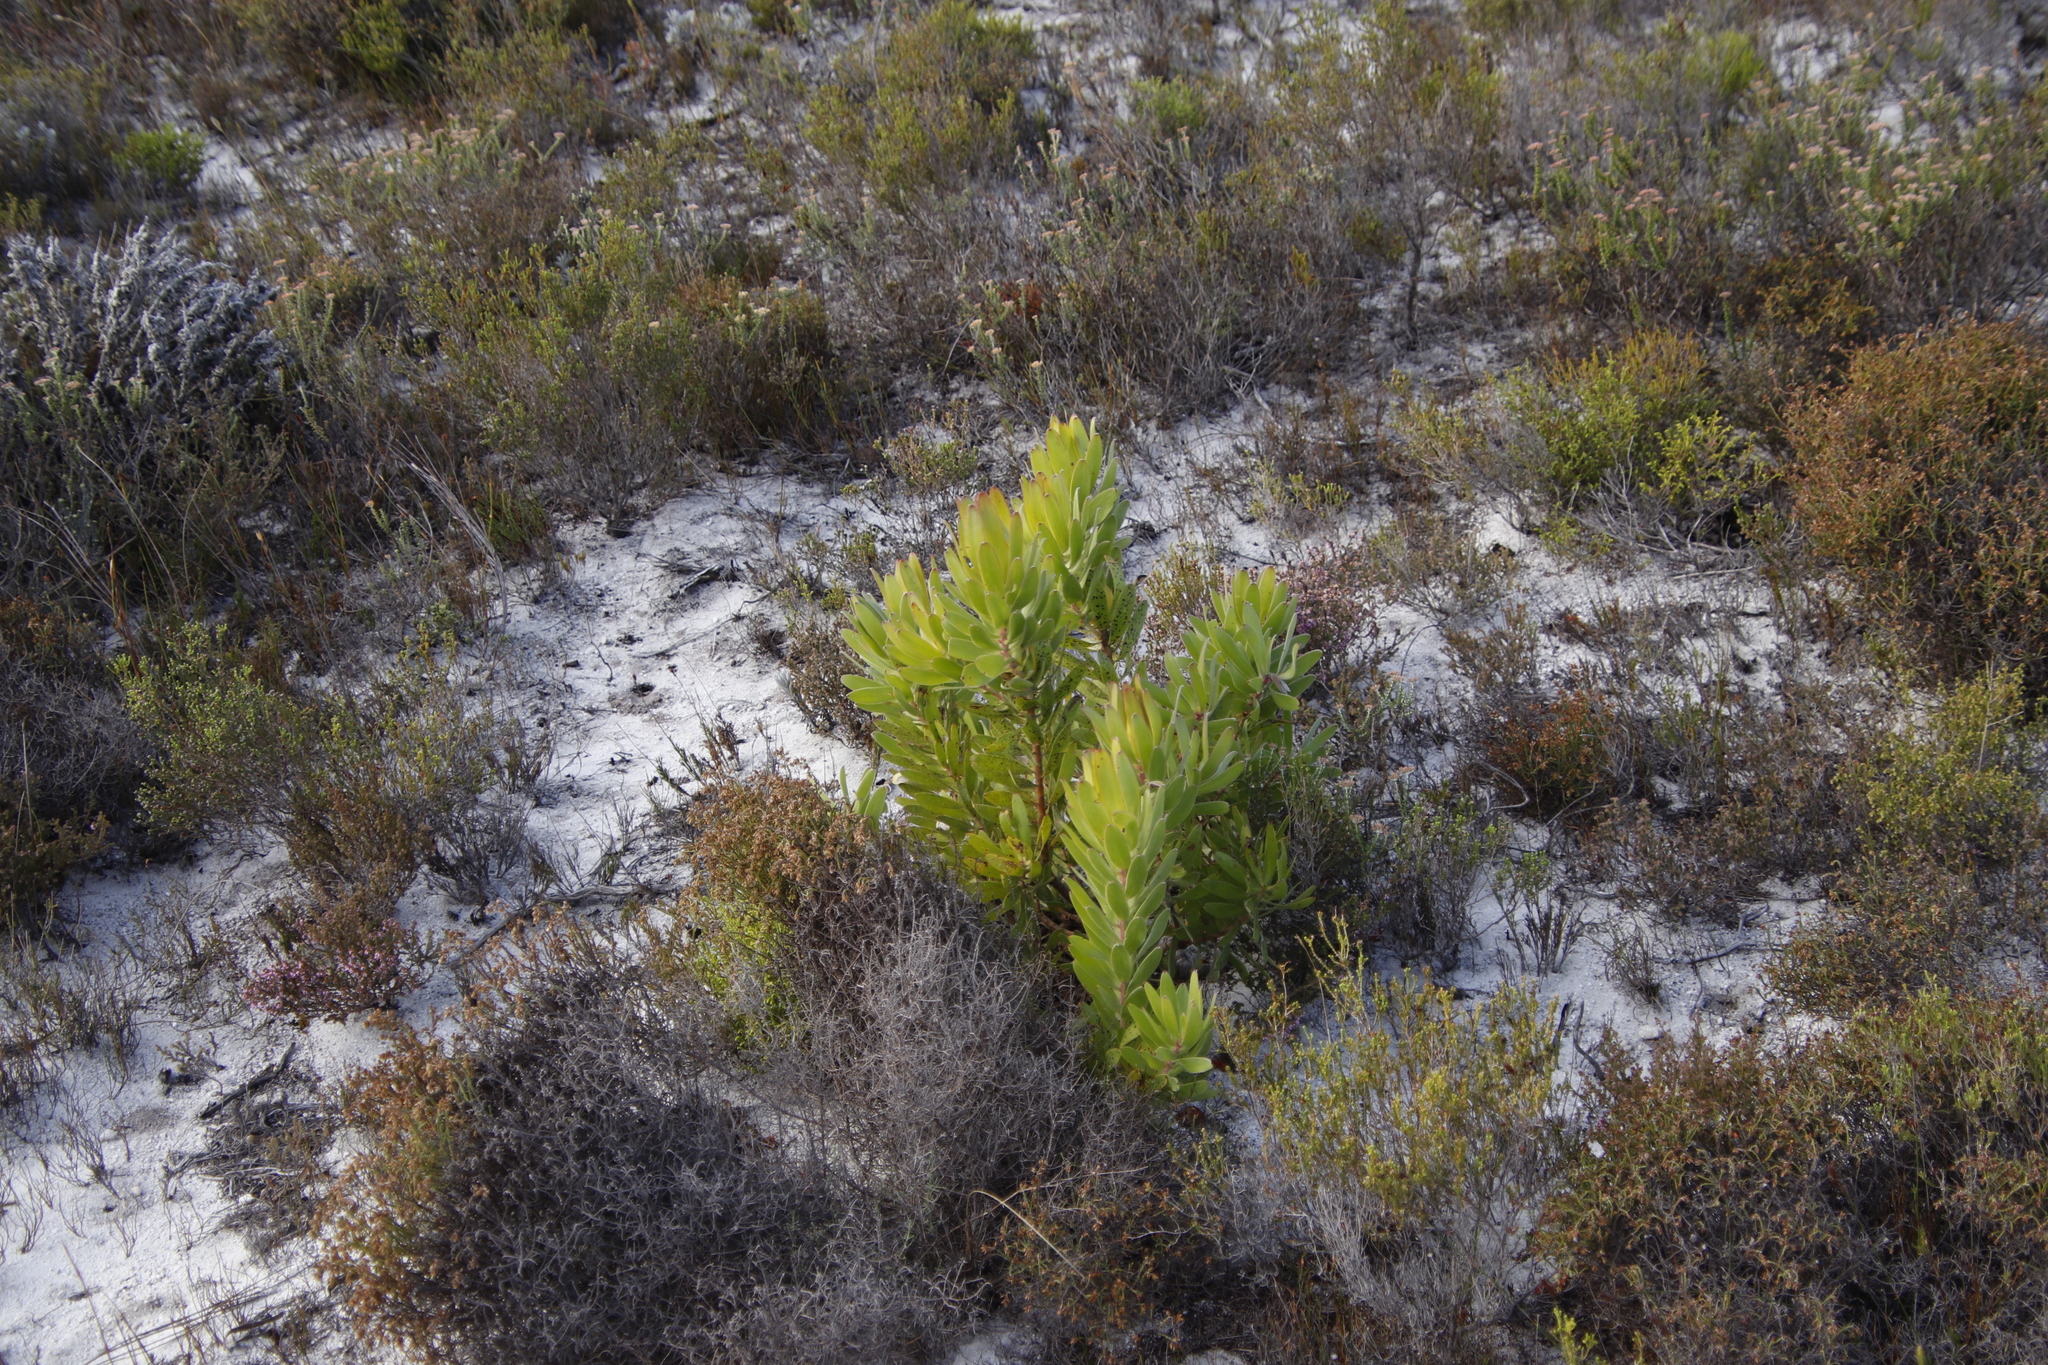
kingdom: Plantae
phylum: Tracheophyta
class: Magnoliopsida
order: Proteales
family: Proteaceae
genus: Leucadendron
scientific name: Leucadendron laureolum
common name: Golden sunshinebush
